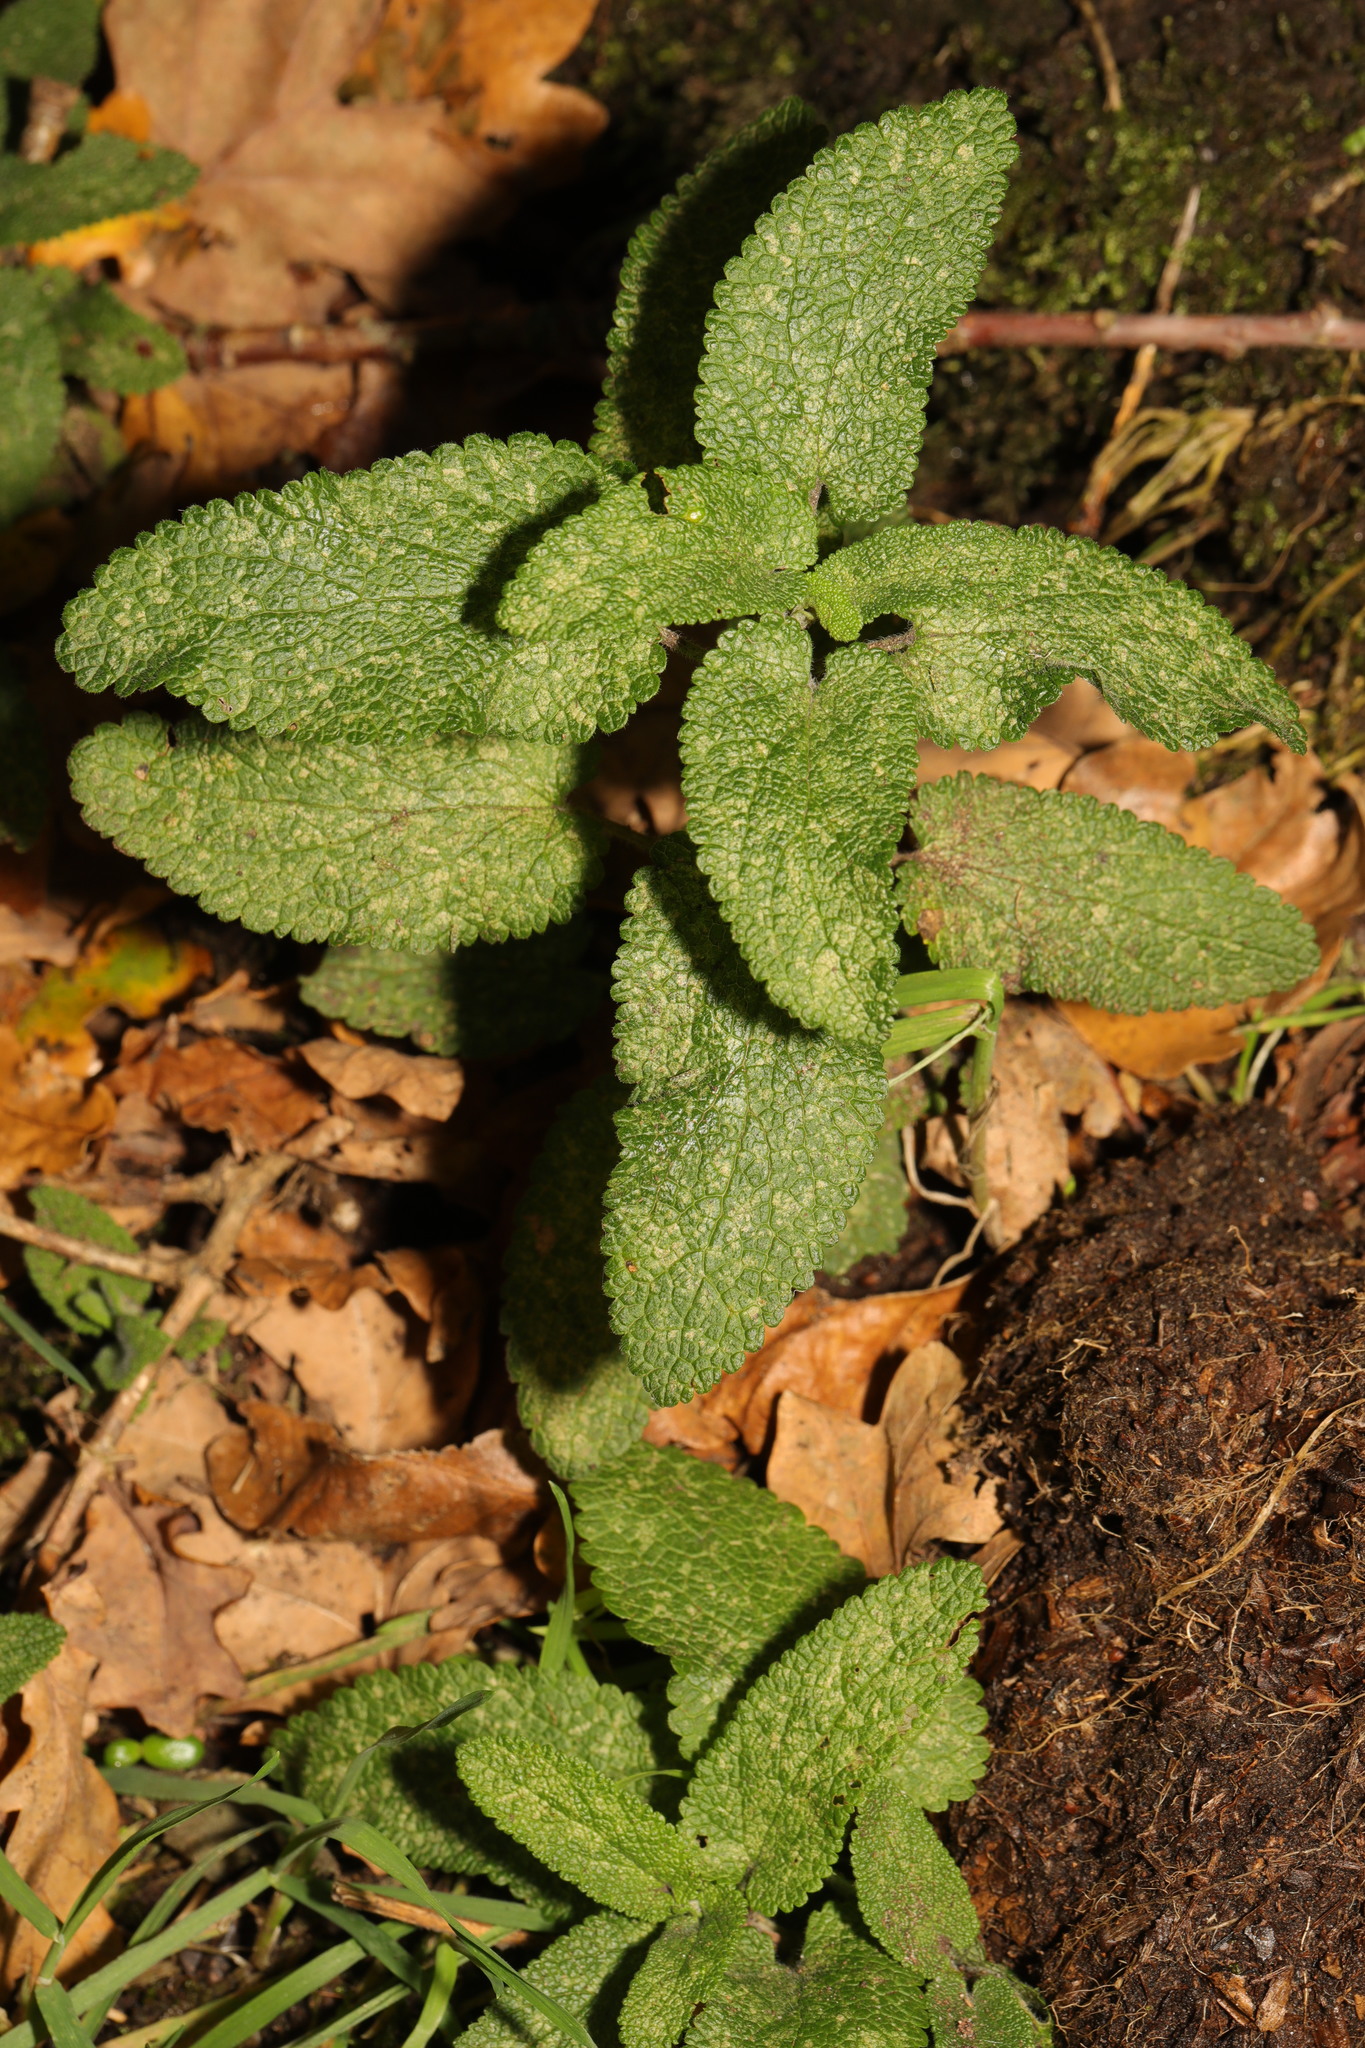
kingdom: Plantae
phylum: Tracheophyta
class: Magnoliopsida
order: Lamiales
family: Lamiaceae
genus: Teucrium
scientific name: Teucrium scorodonia
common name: Woodland germander
